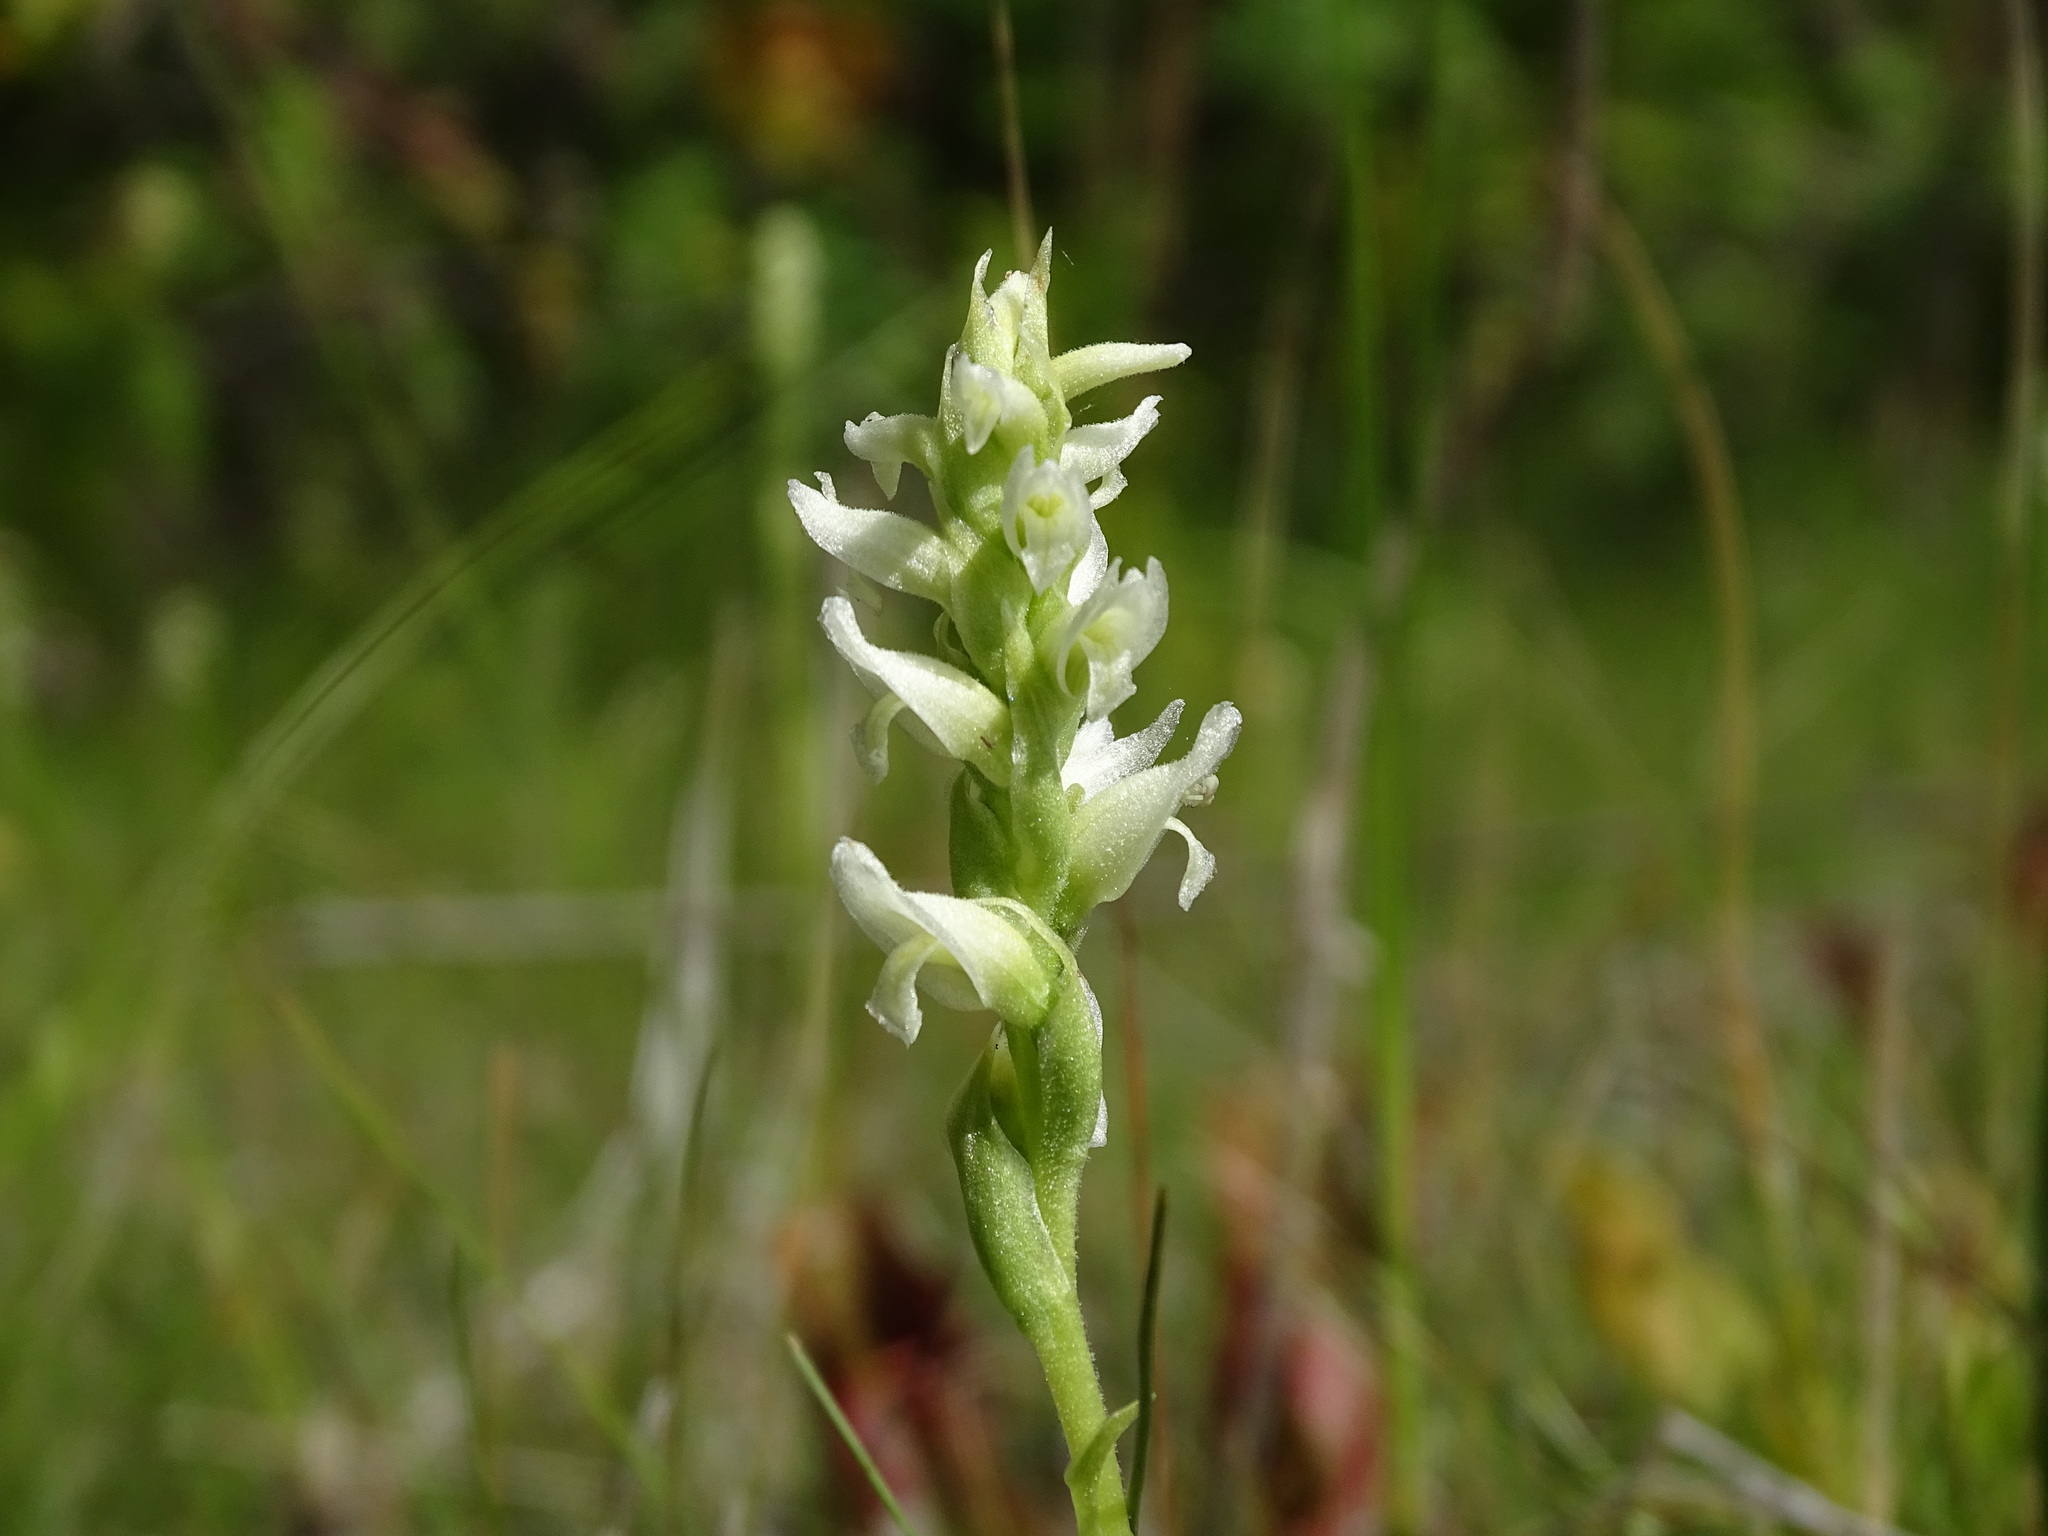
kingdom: Plantae
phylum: Tracheophyta
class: Liliopsida
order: Asparagales
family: Orchidaceae
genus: Spiranthes
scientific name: Spiranthes romanzoffiana
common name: Irish lady's-tresses
